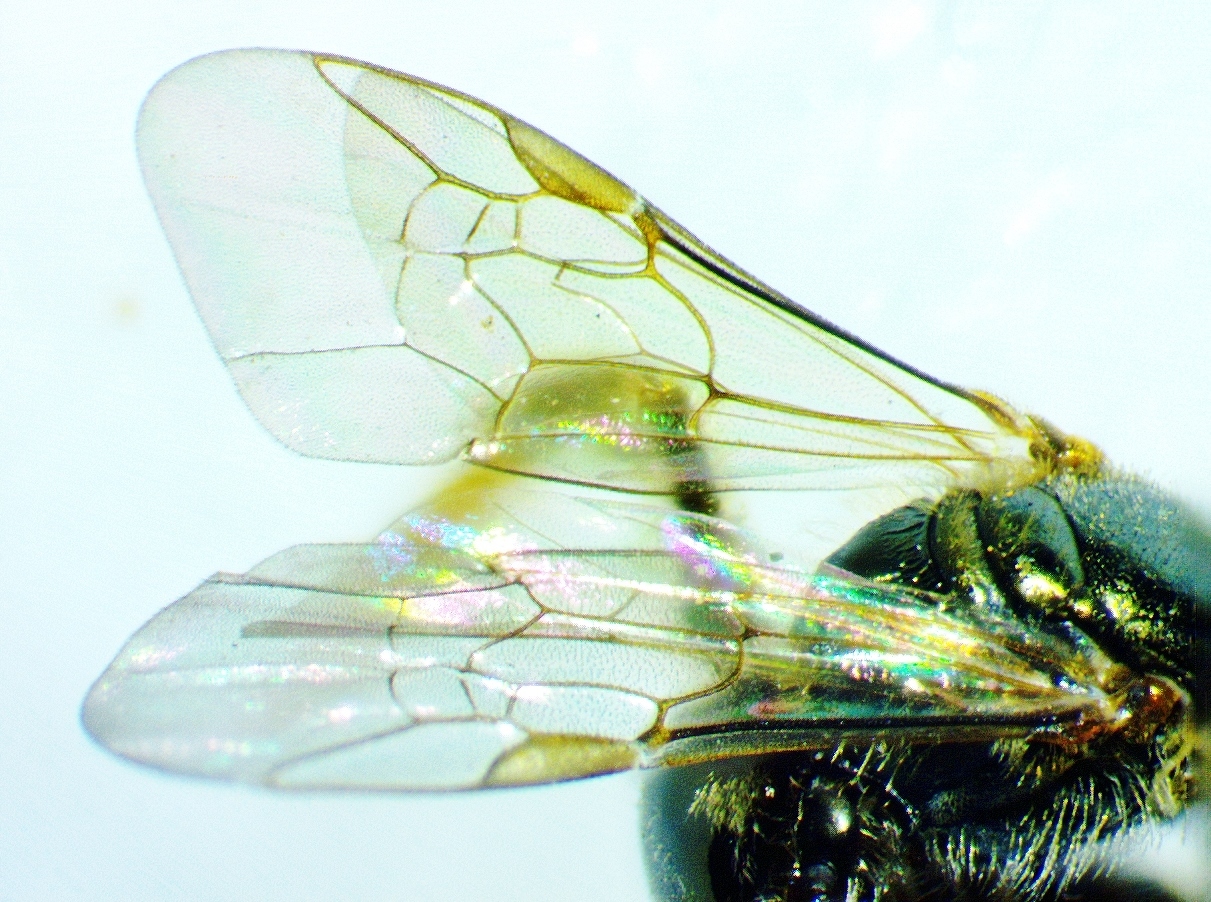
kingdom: Animalia
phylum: Arthropoda
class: Insecta
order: Hymenoptera
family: Halictidae
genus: Lasioglossum
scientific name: Lasioglossum zephyrum
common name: Zephyr sweat bee
